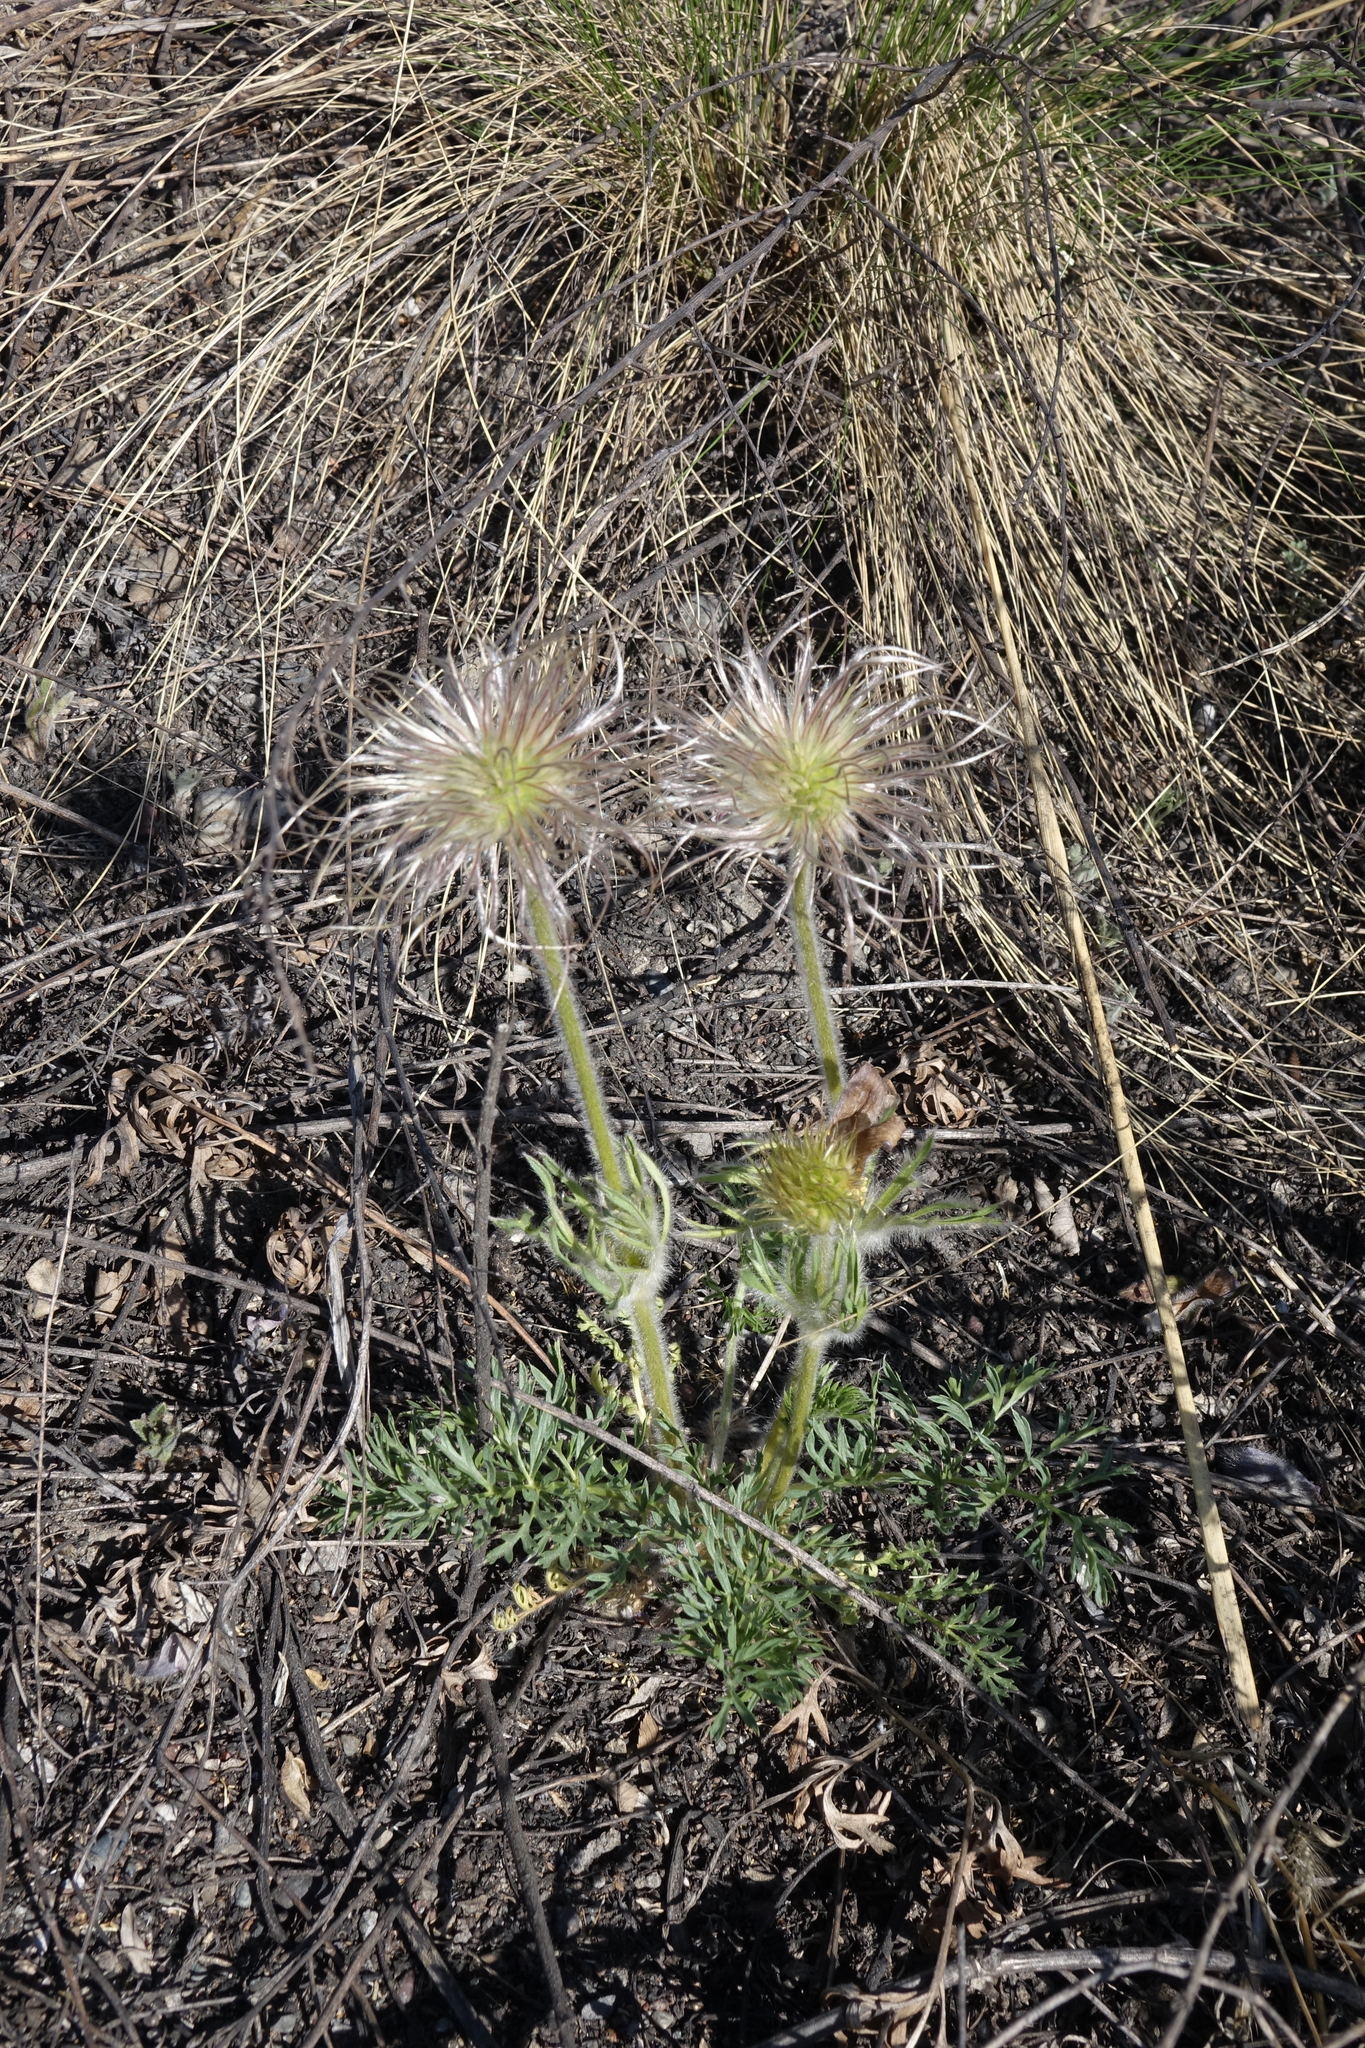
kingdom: Plantae
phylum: Tracheophyta
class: Magnoliopsida
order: Ranunculales
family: Ranunculaceae
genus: Pulsatilla
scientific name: Pulsatilla turczaninovii
